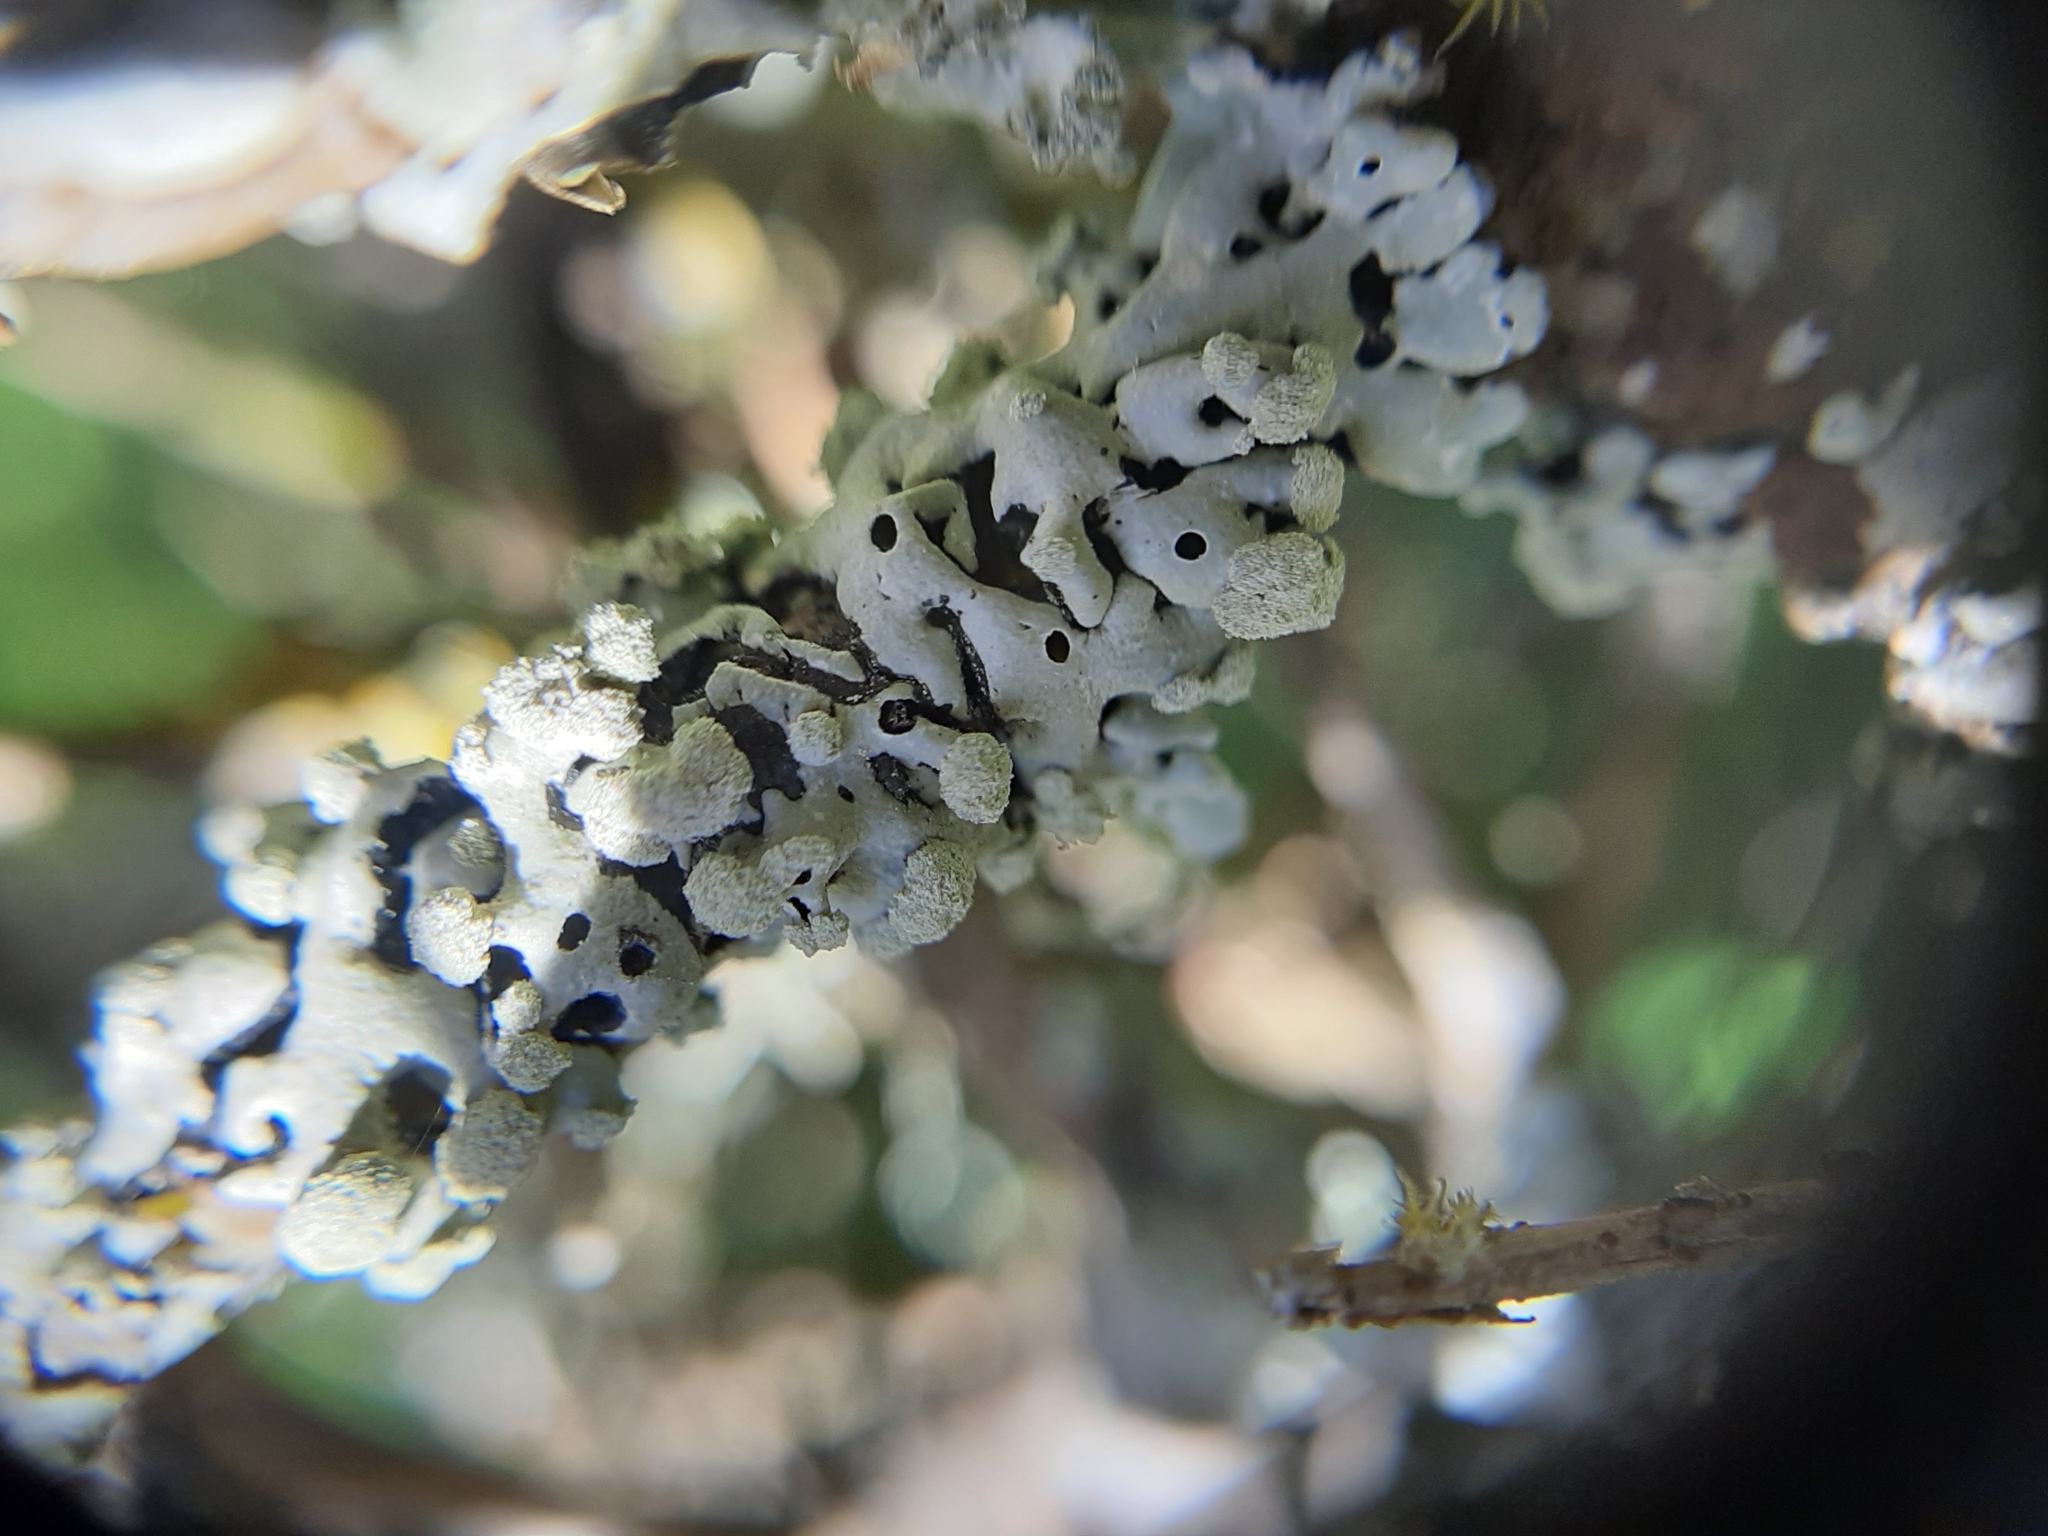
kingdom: Fungi
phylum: Ascomycota
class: Lecanoromycetes
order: Lecanorales
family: Parmeliaceae
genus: Menegazzia
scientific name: Menegazzia subpertusa
